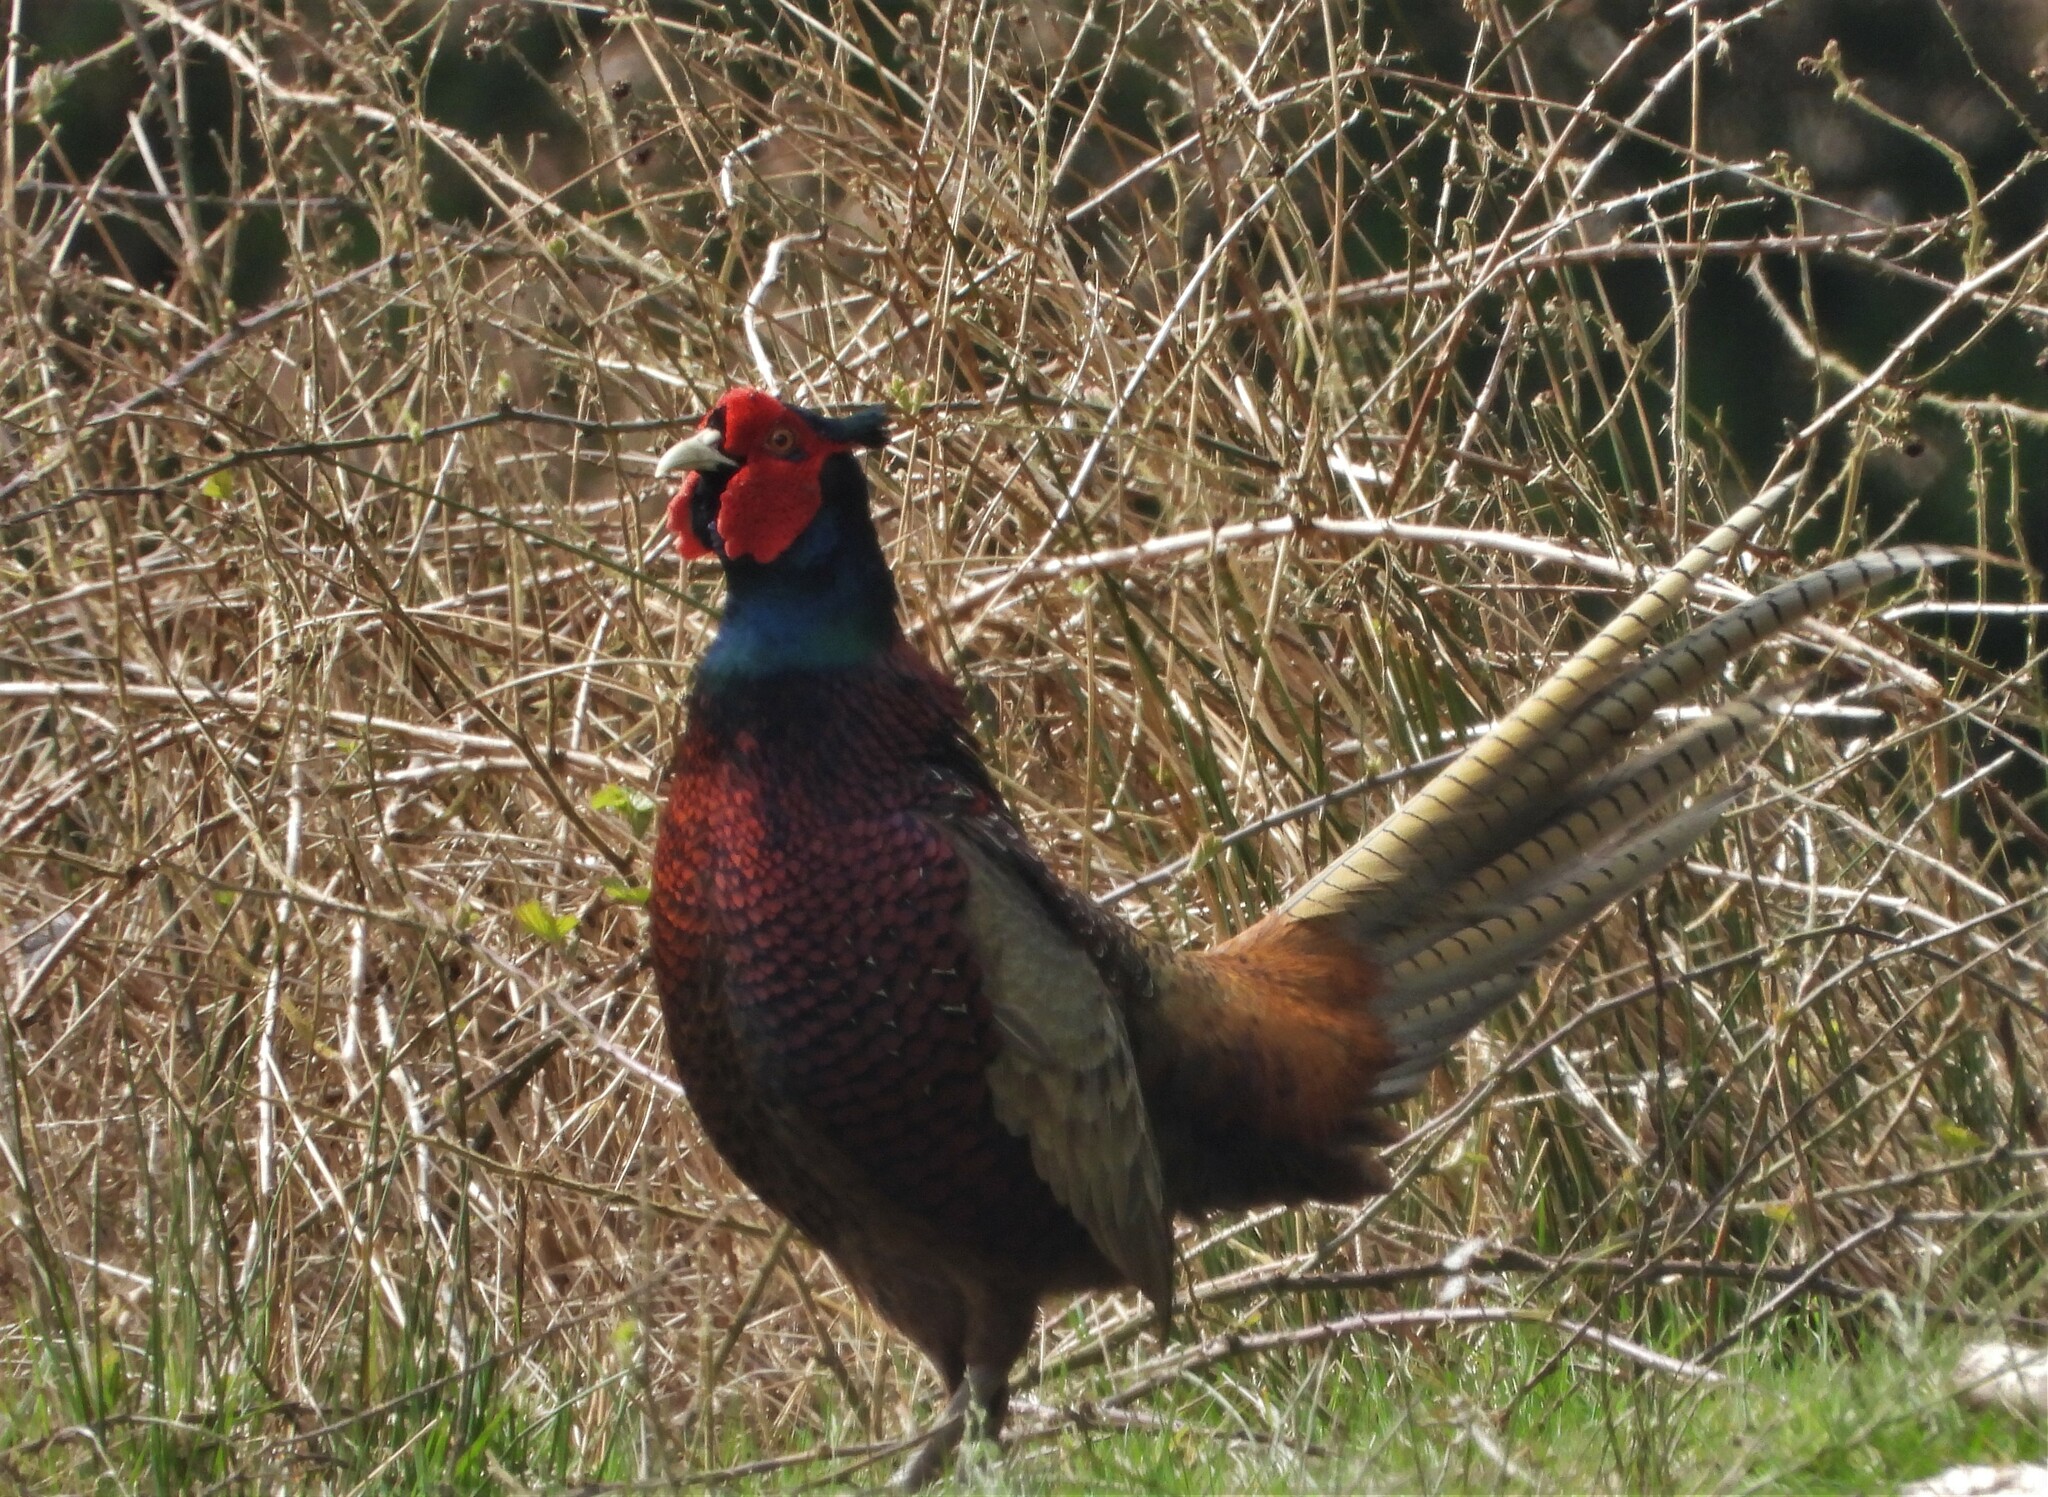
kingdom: Animalia
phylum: Chordata
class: Aves
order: Galliformes
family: Phasianidae
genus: Phasianus
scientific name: Phasianus colchicus
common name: Common pheasant
